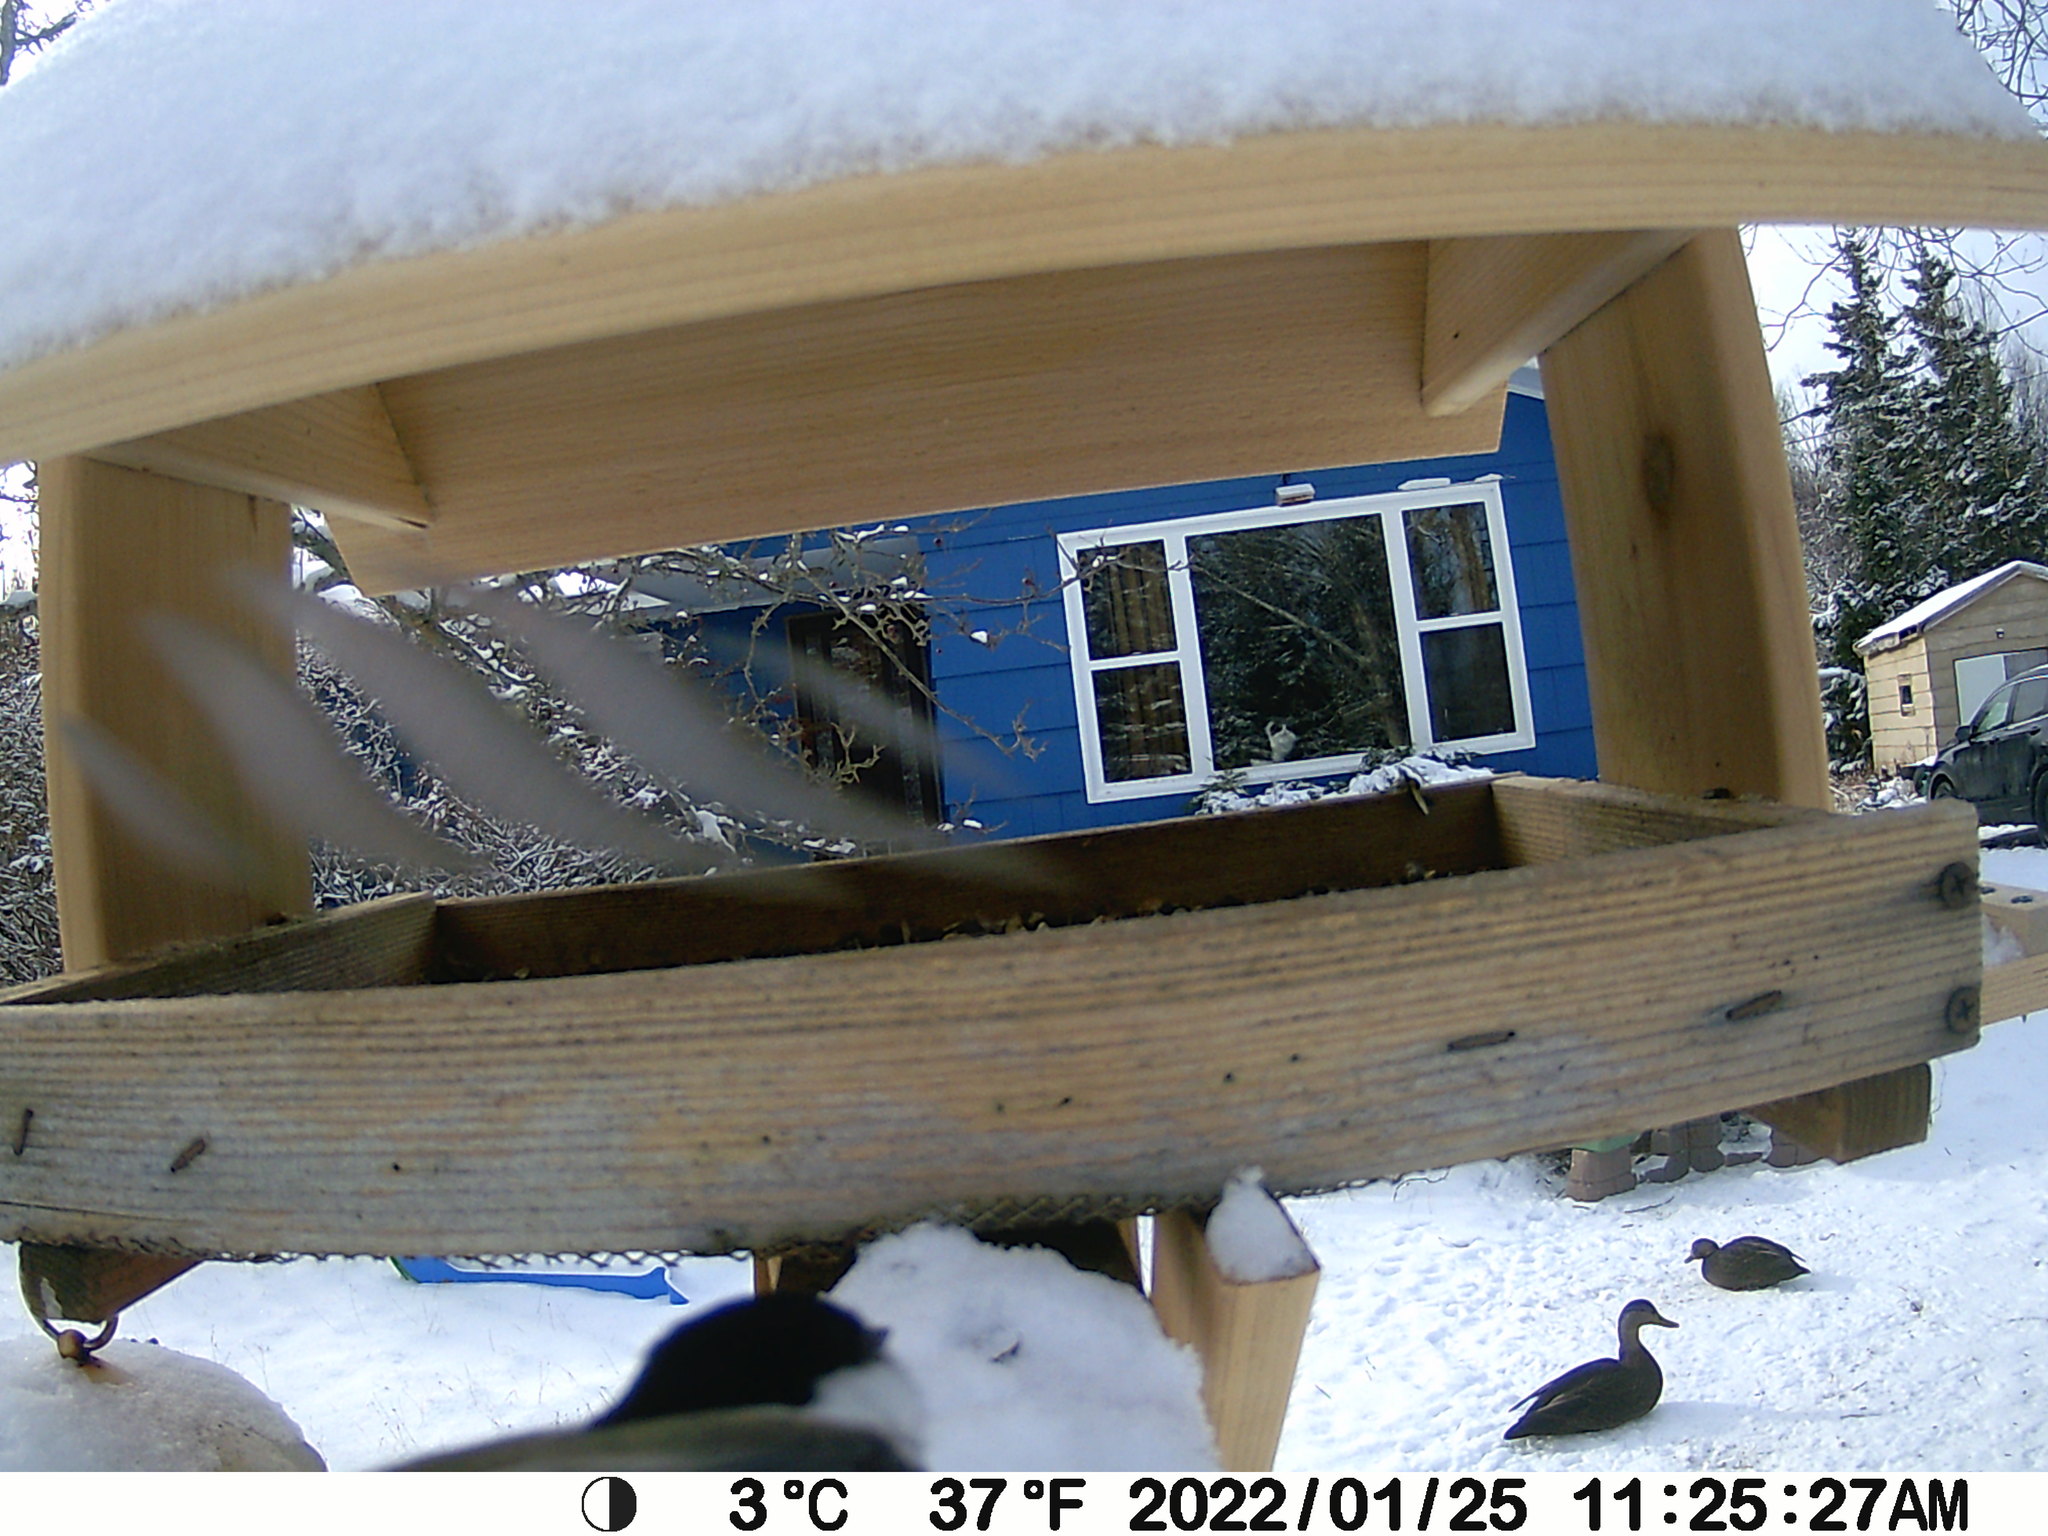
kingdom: Animalia
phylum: Chordata
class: Aves
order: Anseriformes
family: Anatidae
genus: Anas
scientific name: Anas rubripes
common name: American black duck
